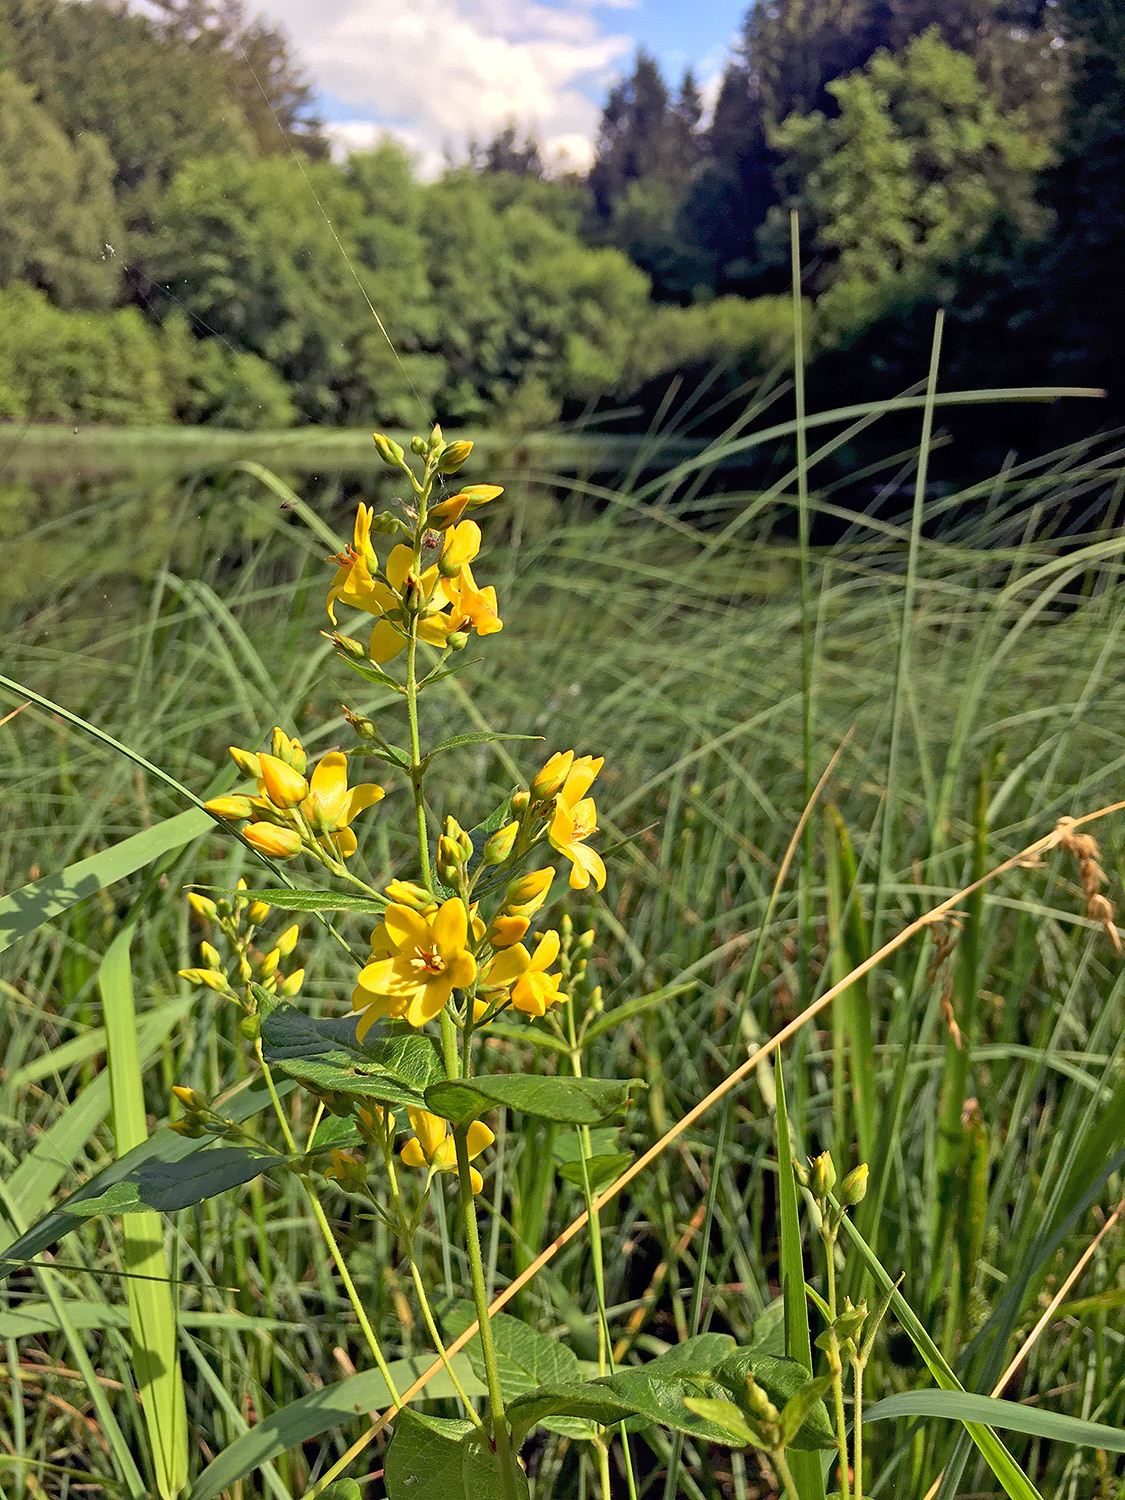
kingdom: Plantae
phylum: Tracheophyta
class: Magnoliopsida
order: Ericales
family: Primulaceae
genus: Lysimachia
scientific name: Lysimachia vulgaris
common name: Yellow loosestrife
